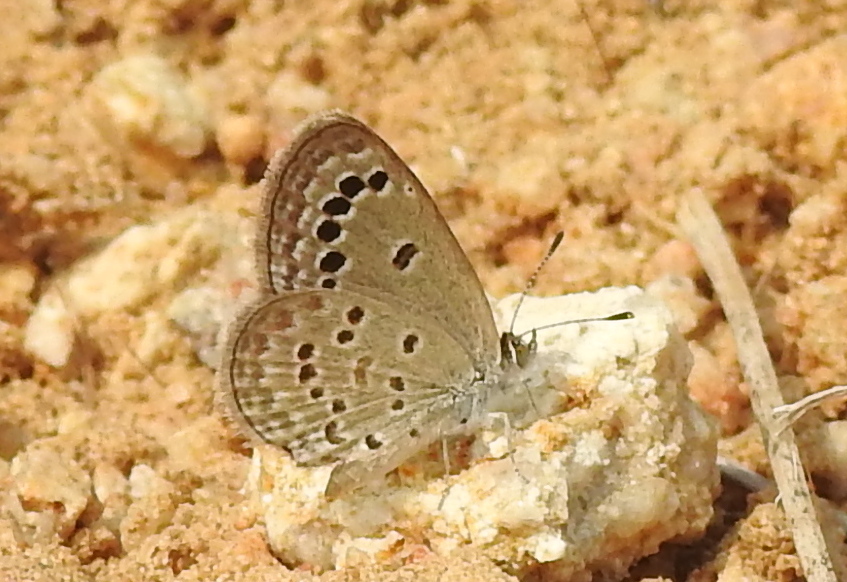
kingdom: Animalia
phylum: Arthropoda
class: Insecta
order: Lepidoptera
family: Lycaenidae
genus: Zizina
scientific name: Zizina otis
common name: Lesser grass blue
